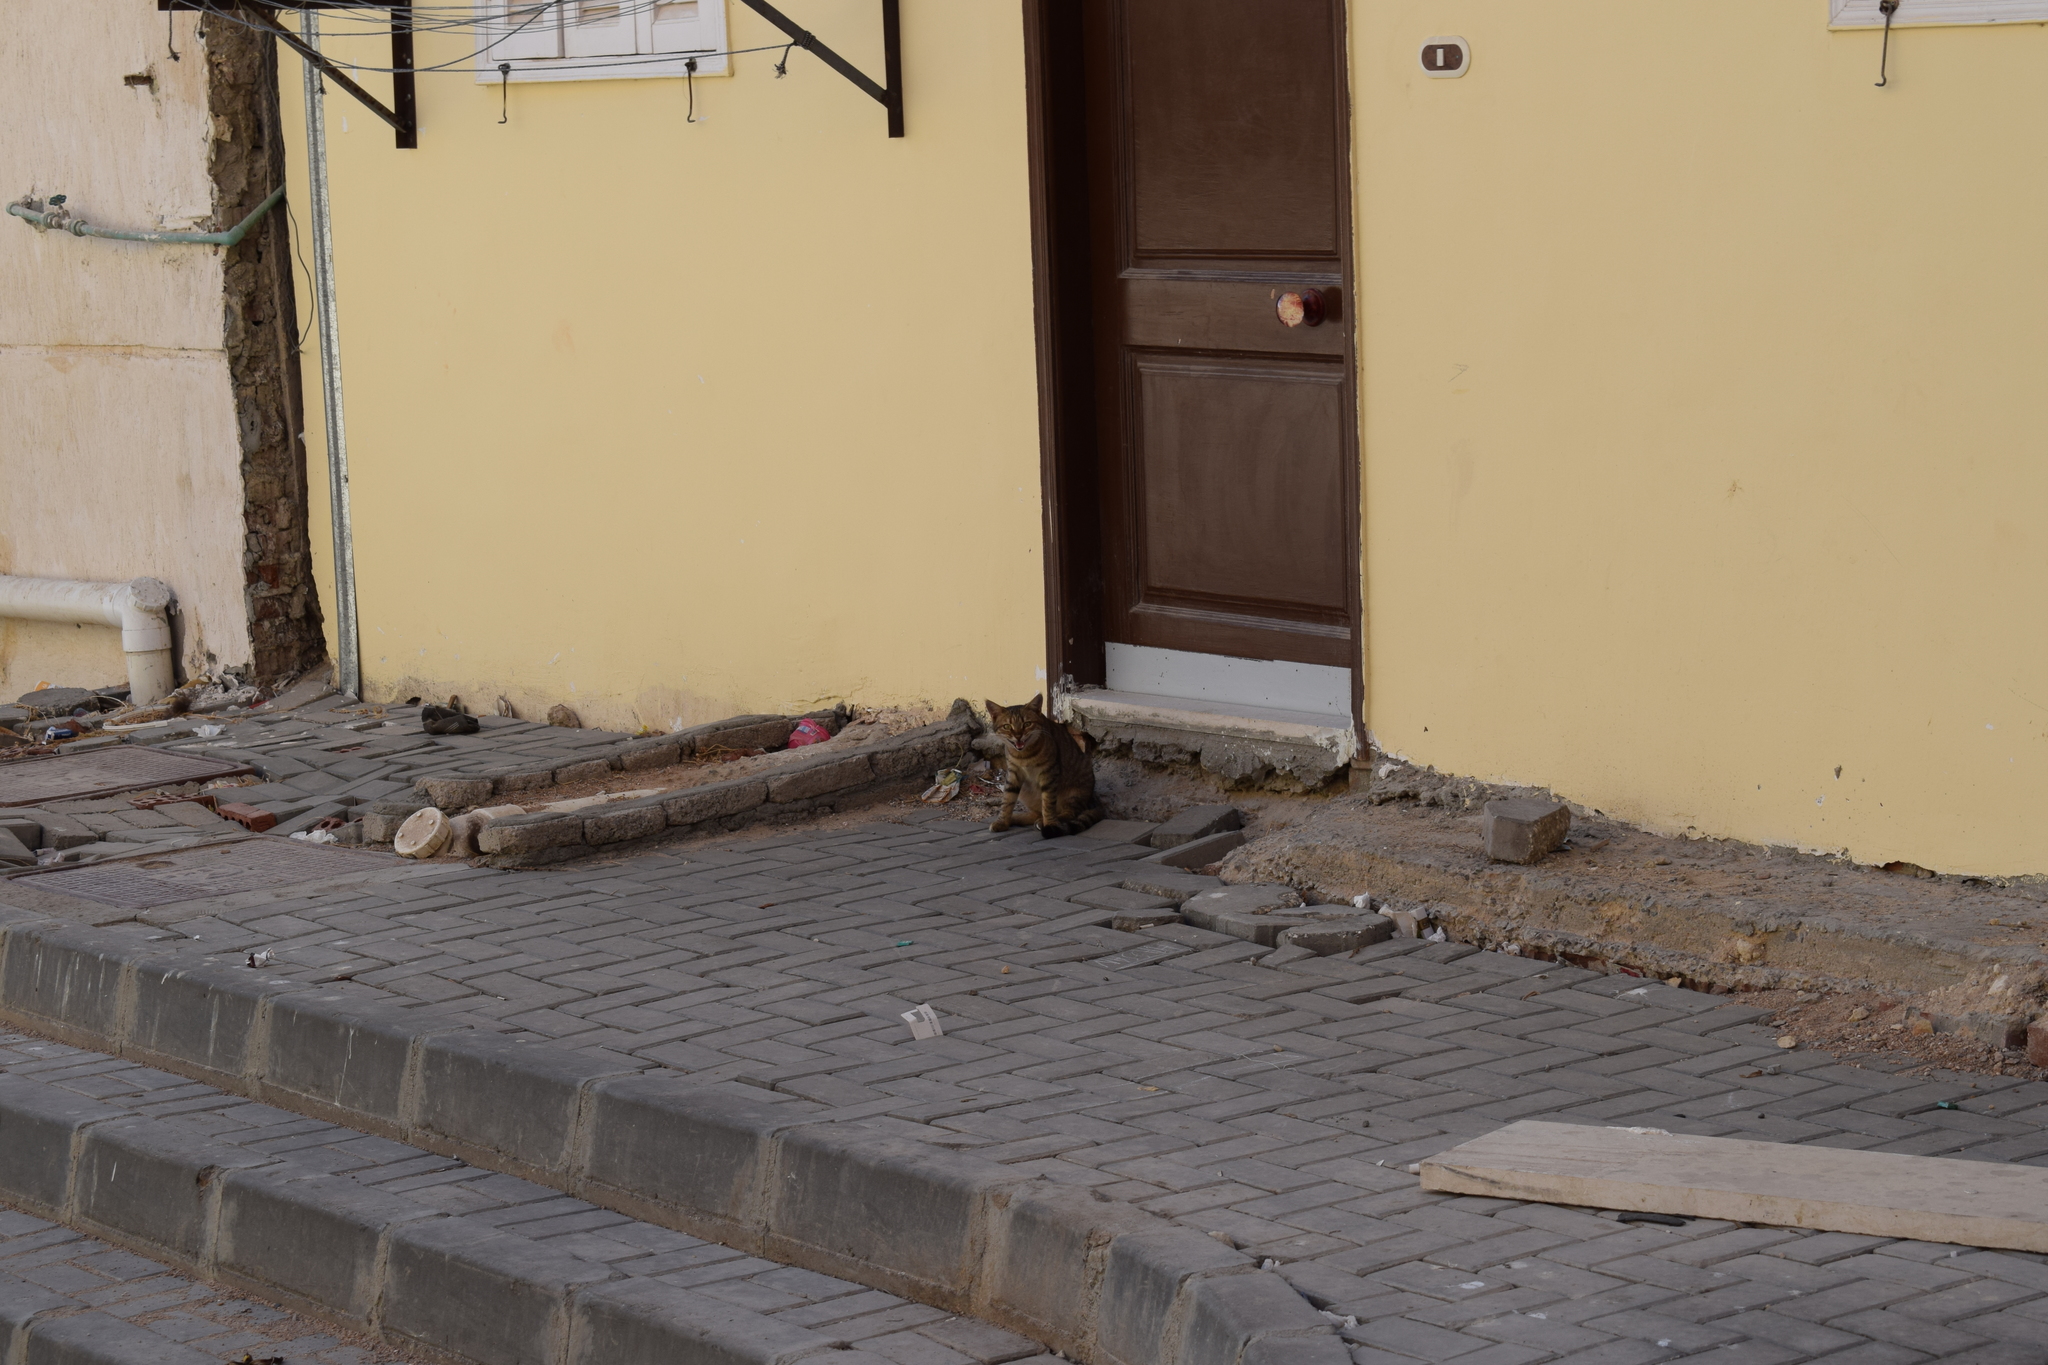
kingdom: Animalia
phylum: Chordata
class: Mammalia
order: Carnivora
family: Felidae
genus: Felis
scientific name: Felis catus
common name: Domestic cat
